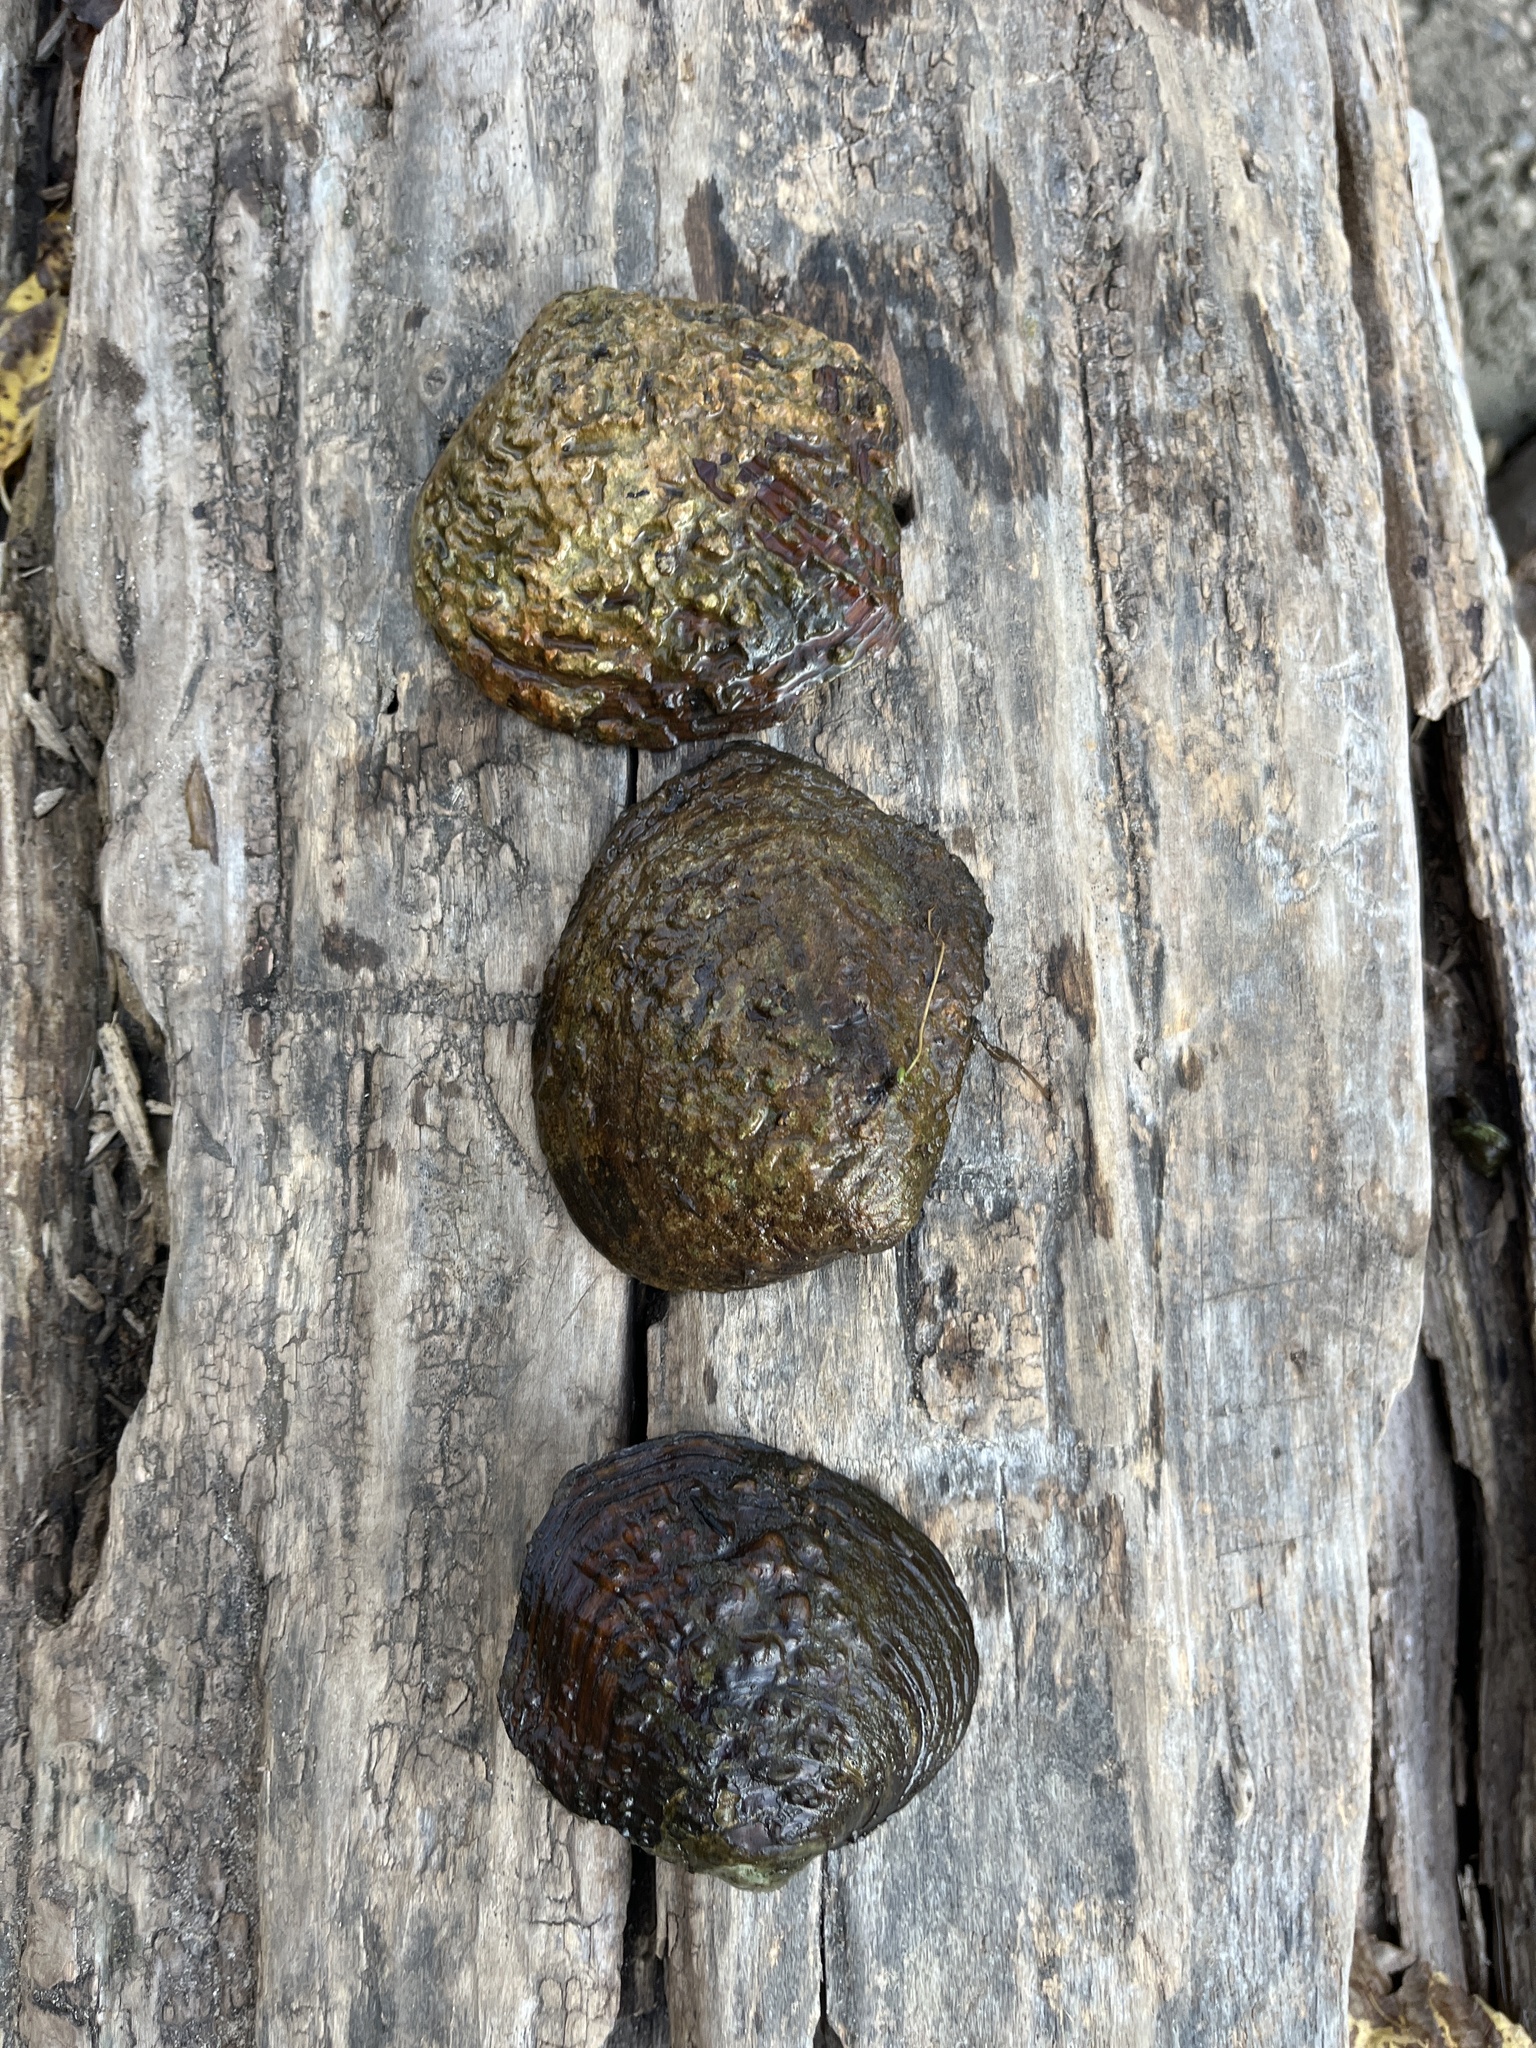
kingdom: Animalia
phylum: Mollusca
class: Bivalvia
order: Unionida
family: Unionidae
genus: Cyclonaias
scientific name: Cyclonaias tuberculata
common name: Purple wartyback
